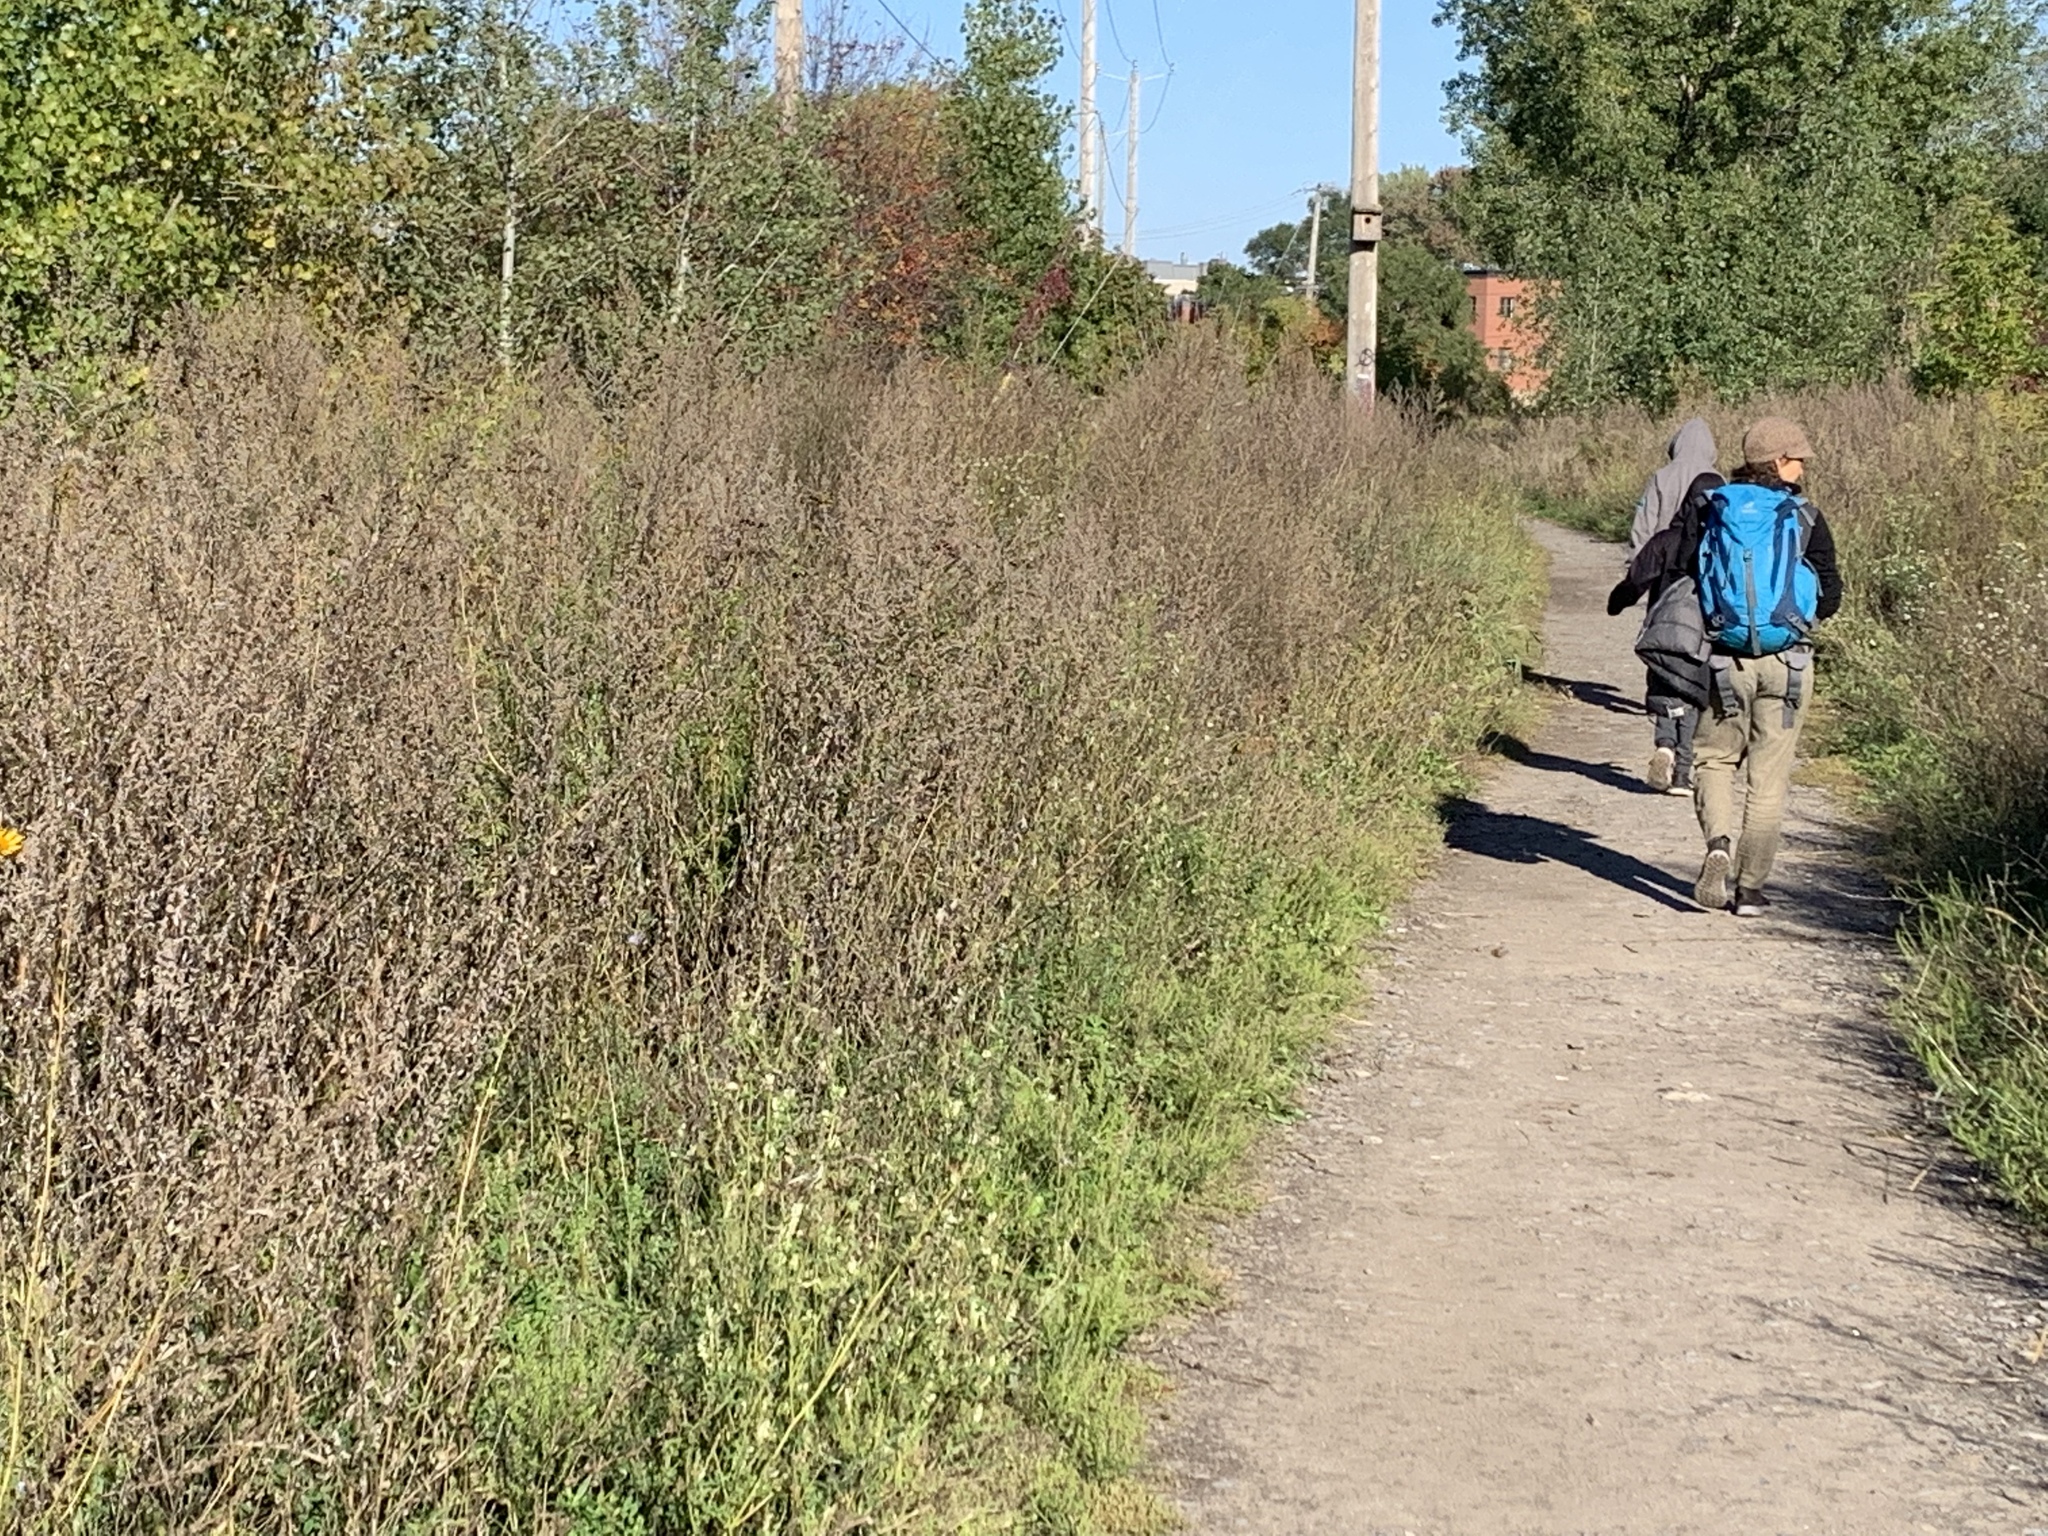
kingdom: Plantae
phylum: Tracheophyta
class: Magnoliopsida
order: Asterales
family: Asteraceae
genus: Artemisia
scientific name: Artemisia vulgaris
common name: Mugwort
